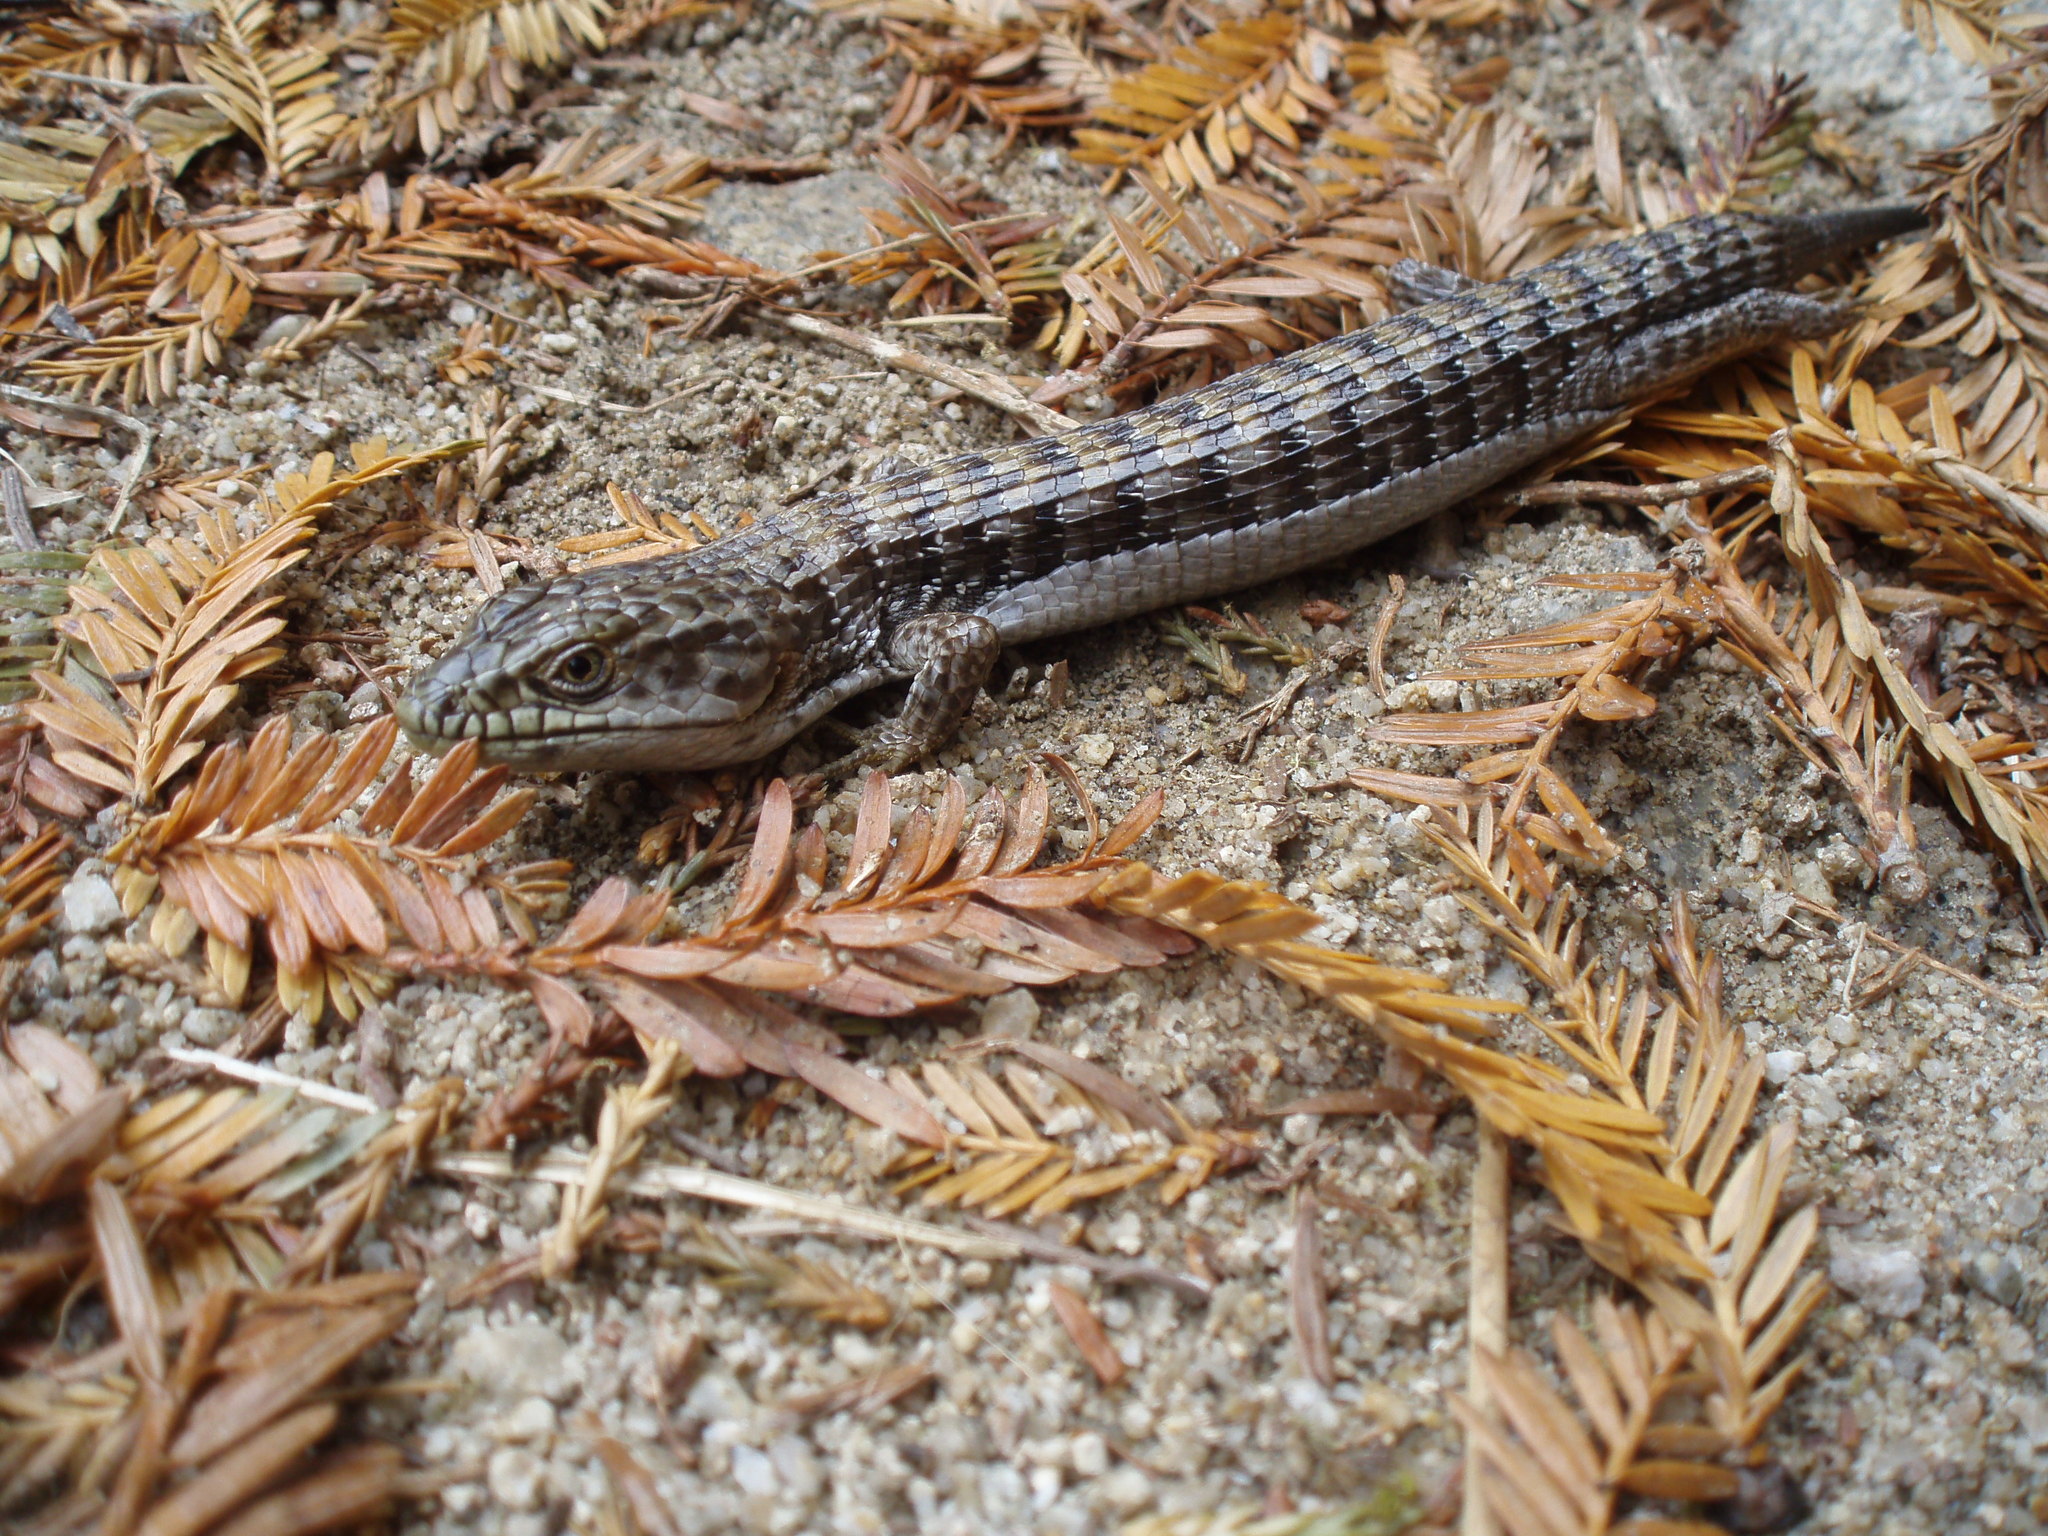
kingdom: Animalia
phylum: Chordata
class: Squamata
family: Anguidae
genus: Elgaria
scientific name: Elgaria multicarinata
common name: Southern alligator lizard
